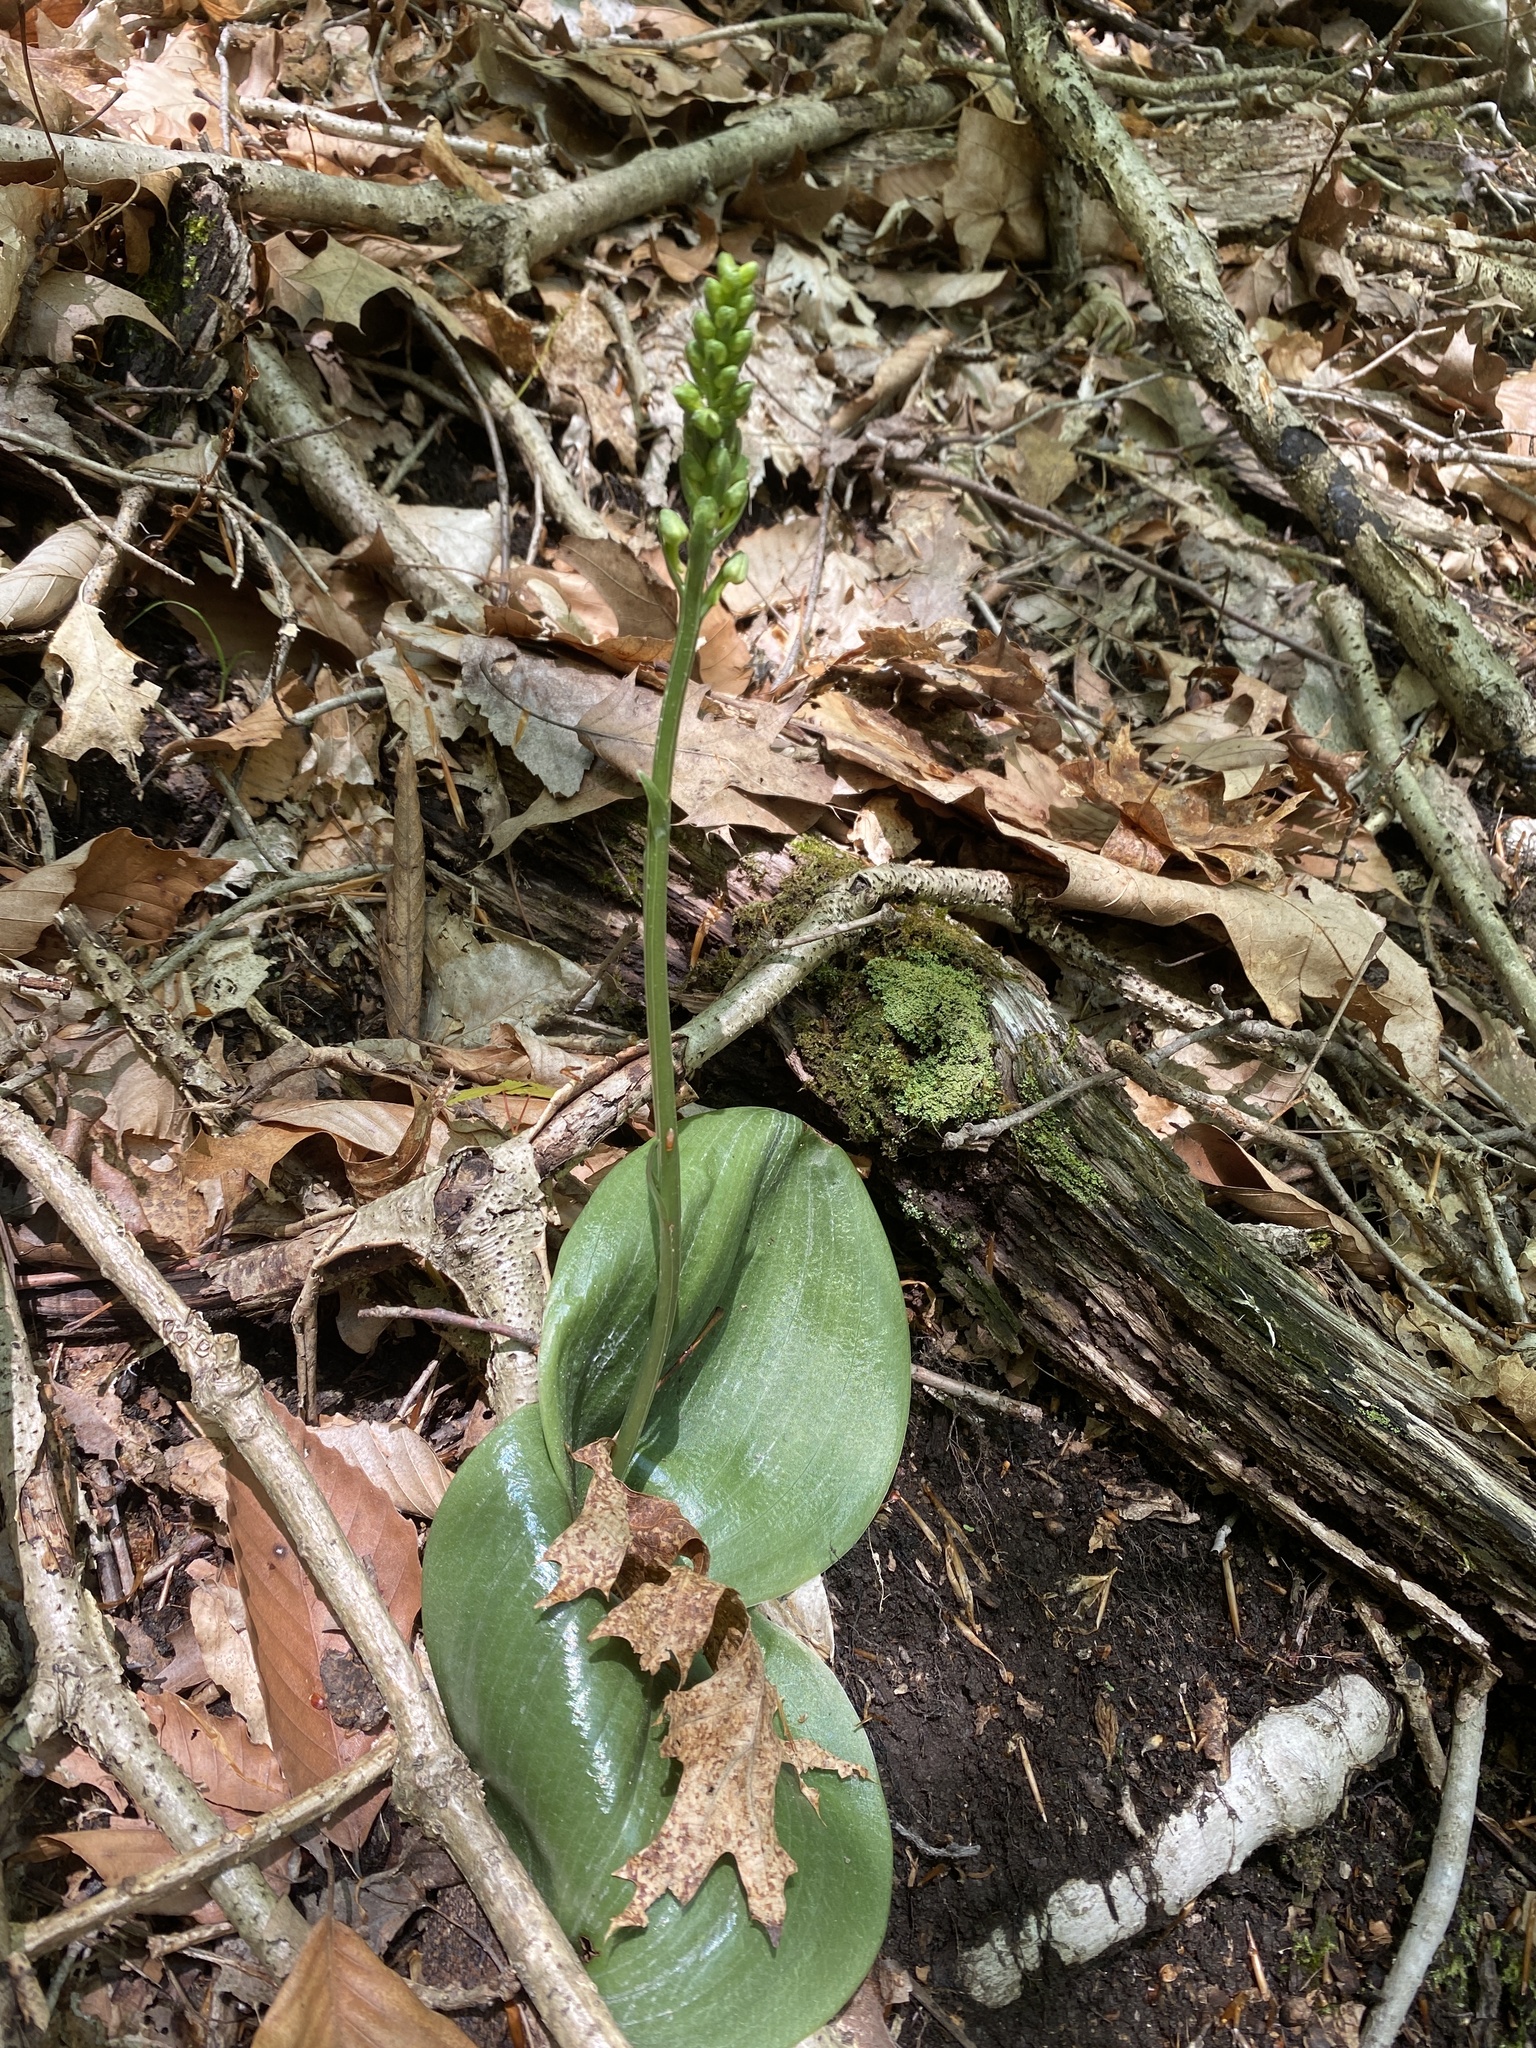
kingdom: Plantae
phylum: Tracheophyta
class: Liliopsida
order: Asparagales
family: Orchidaceae
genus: Platanthera
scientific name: Platanthera orbiculata
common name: Large round-leaved orchid
